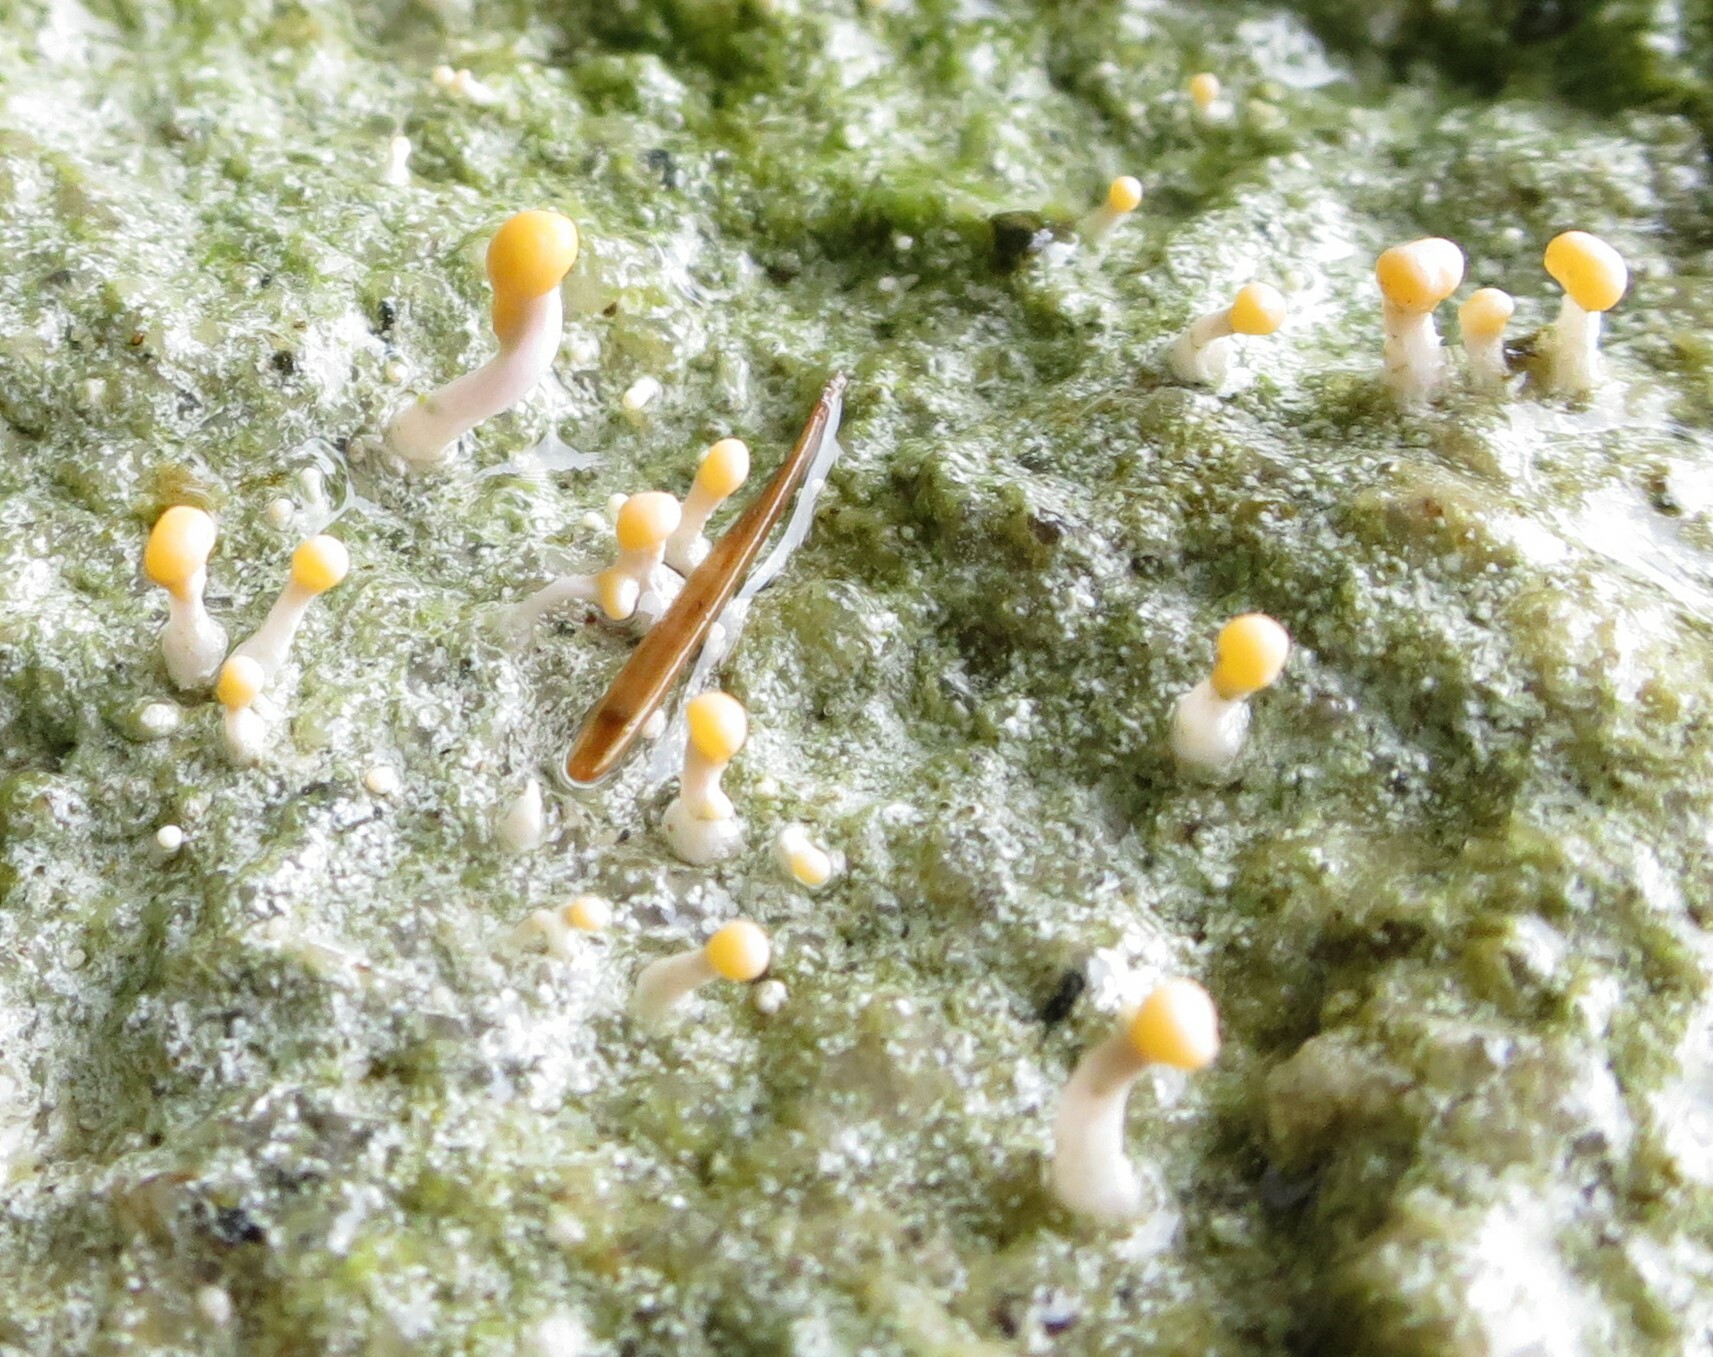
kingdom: Fungi
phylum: Ascomycota
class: Lecanoromycetes
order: Pertusariales
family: Icmadophilaceae
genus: Dibaeis
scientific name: Dibaeis arcuata
